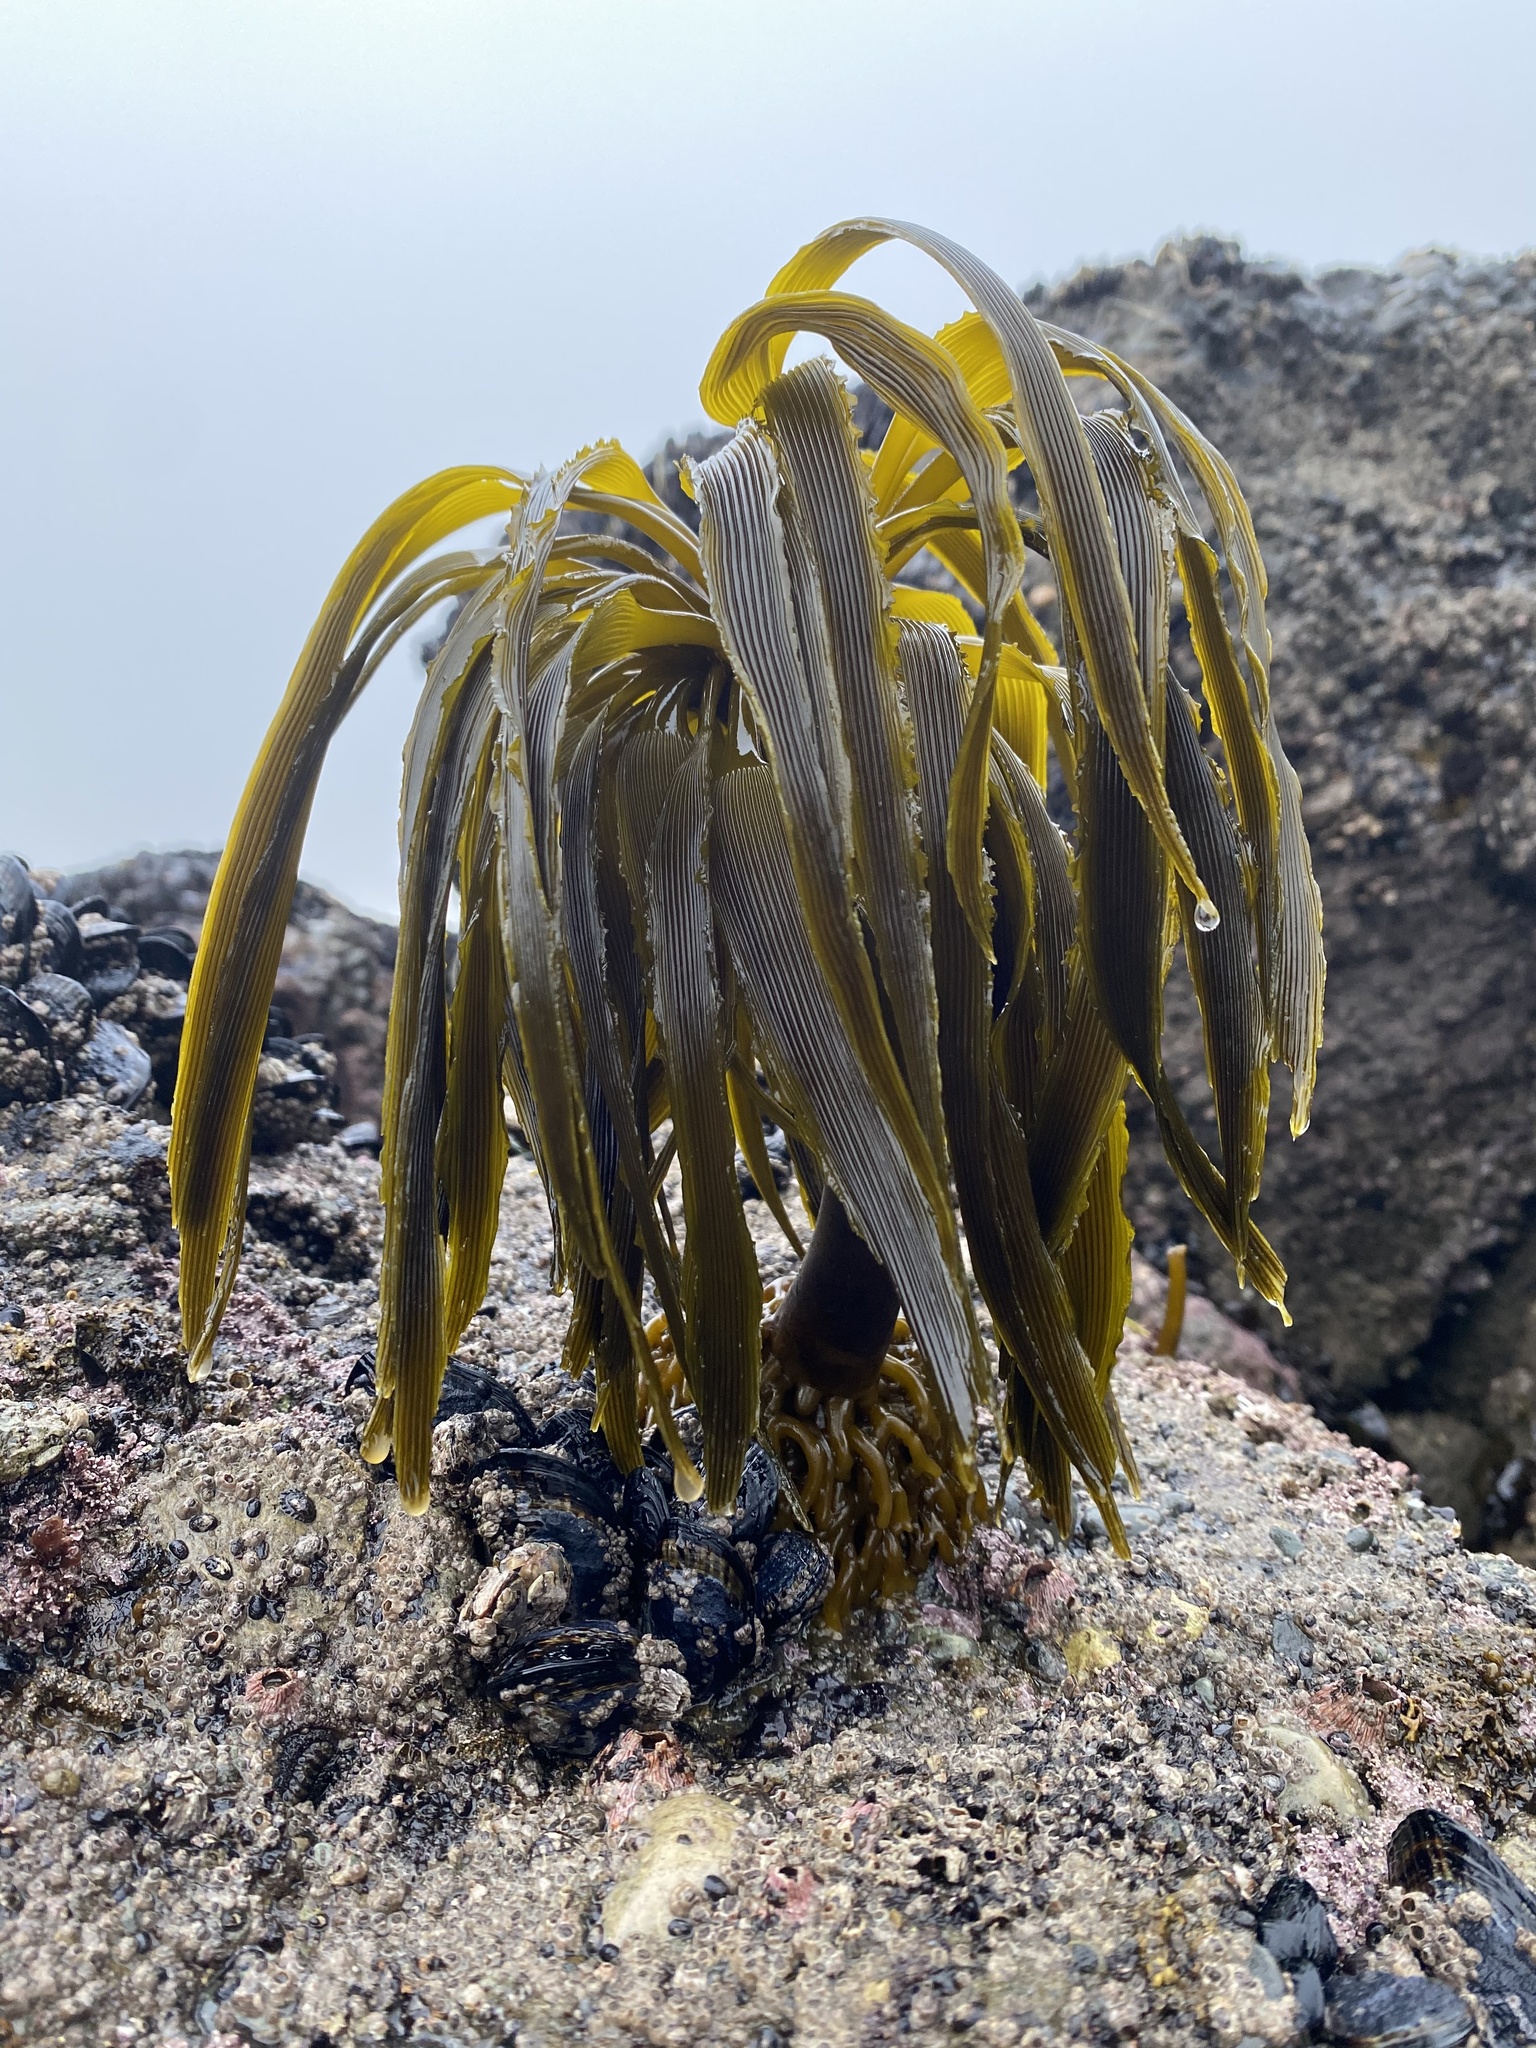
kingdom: Chromista
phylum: Ochrophyta
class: Phaeophyceae
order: Laminariales
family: Laminariaceae
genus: Postelsia
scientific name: Postelsia palmiformis
